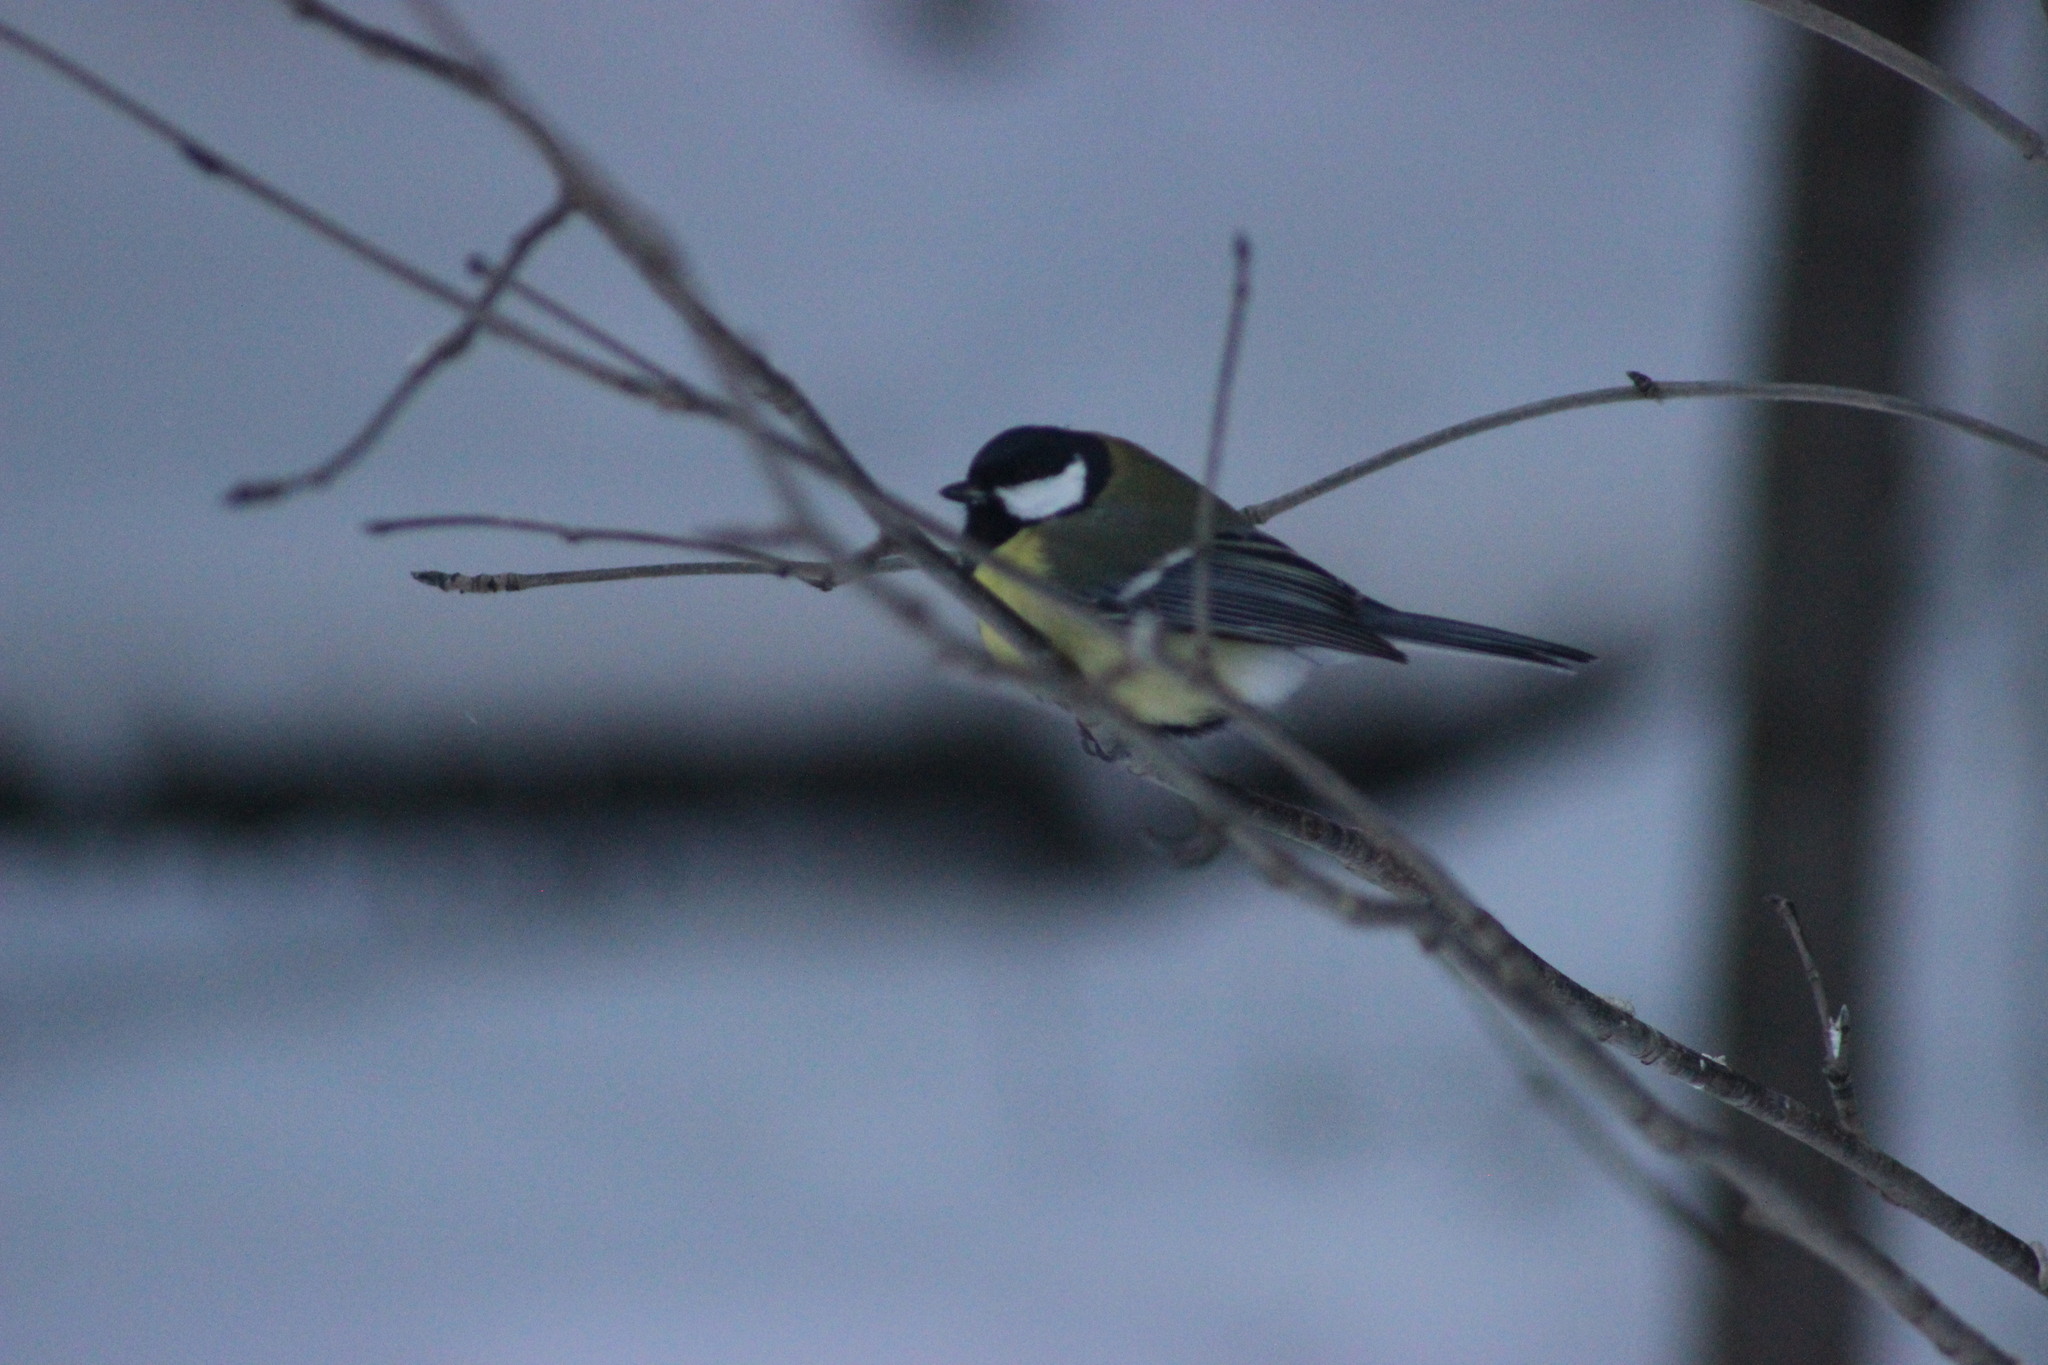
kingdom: Animalia
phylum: Chordata
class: Aves
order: Passeriformes
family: Paridae
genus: Parus
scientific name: Parus major
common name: Great tit
